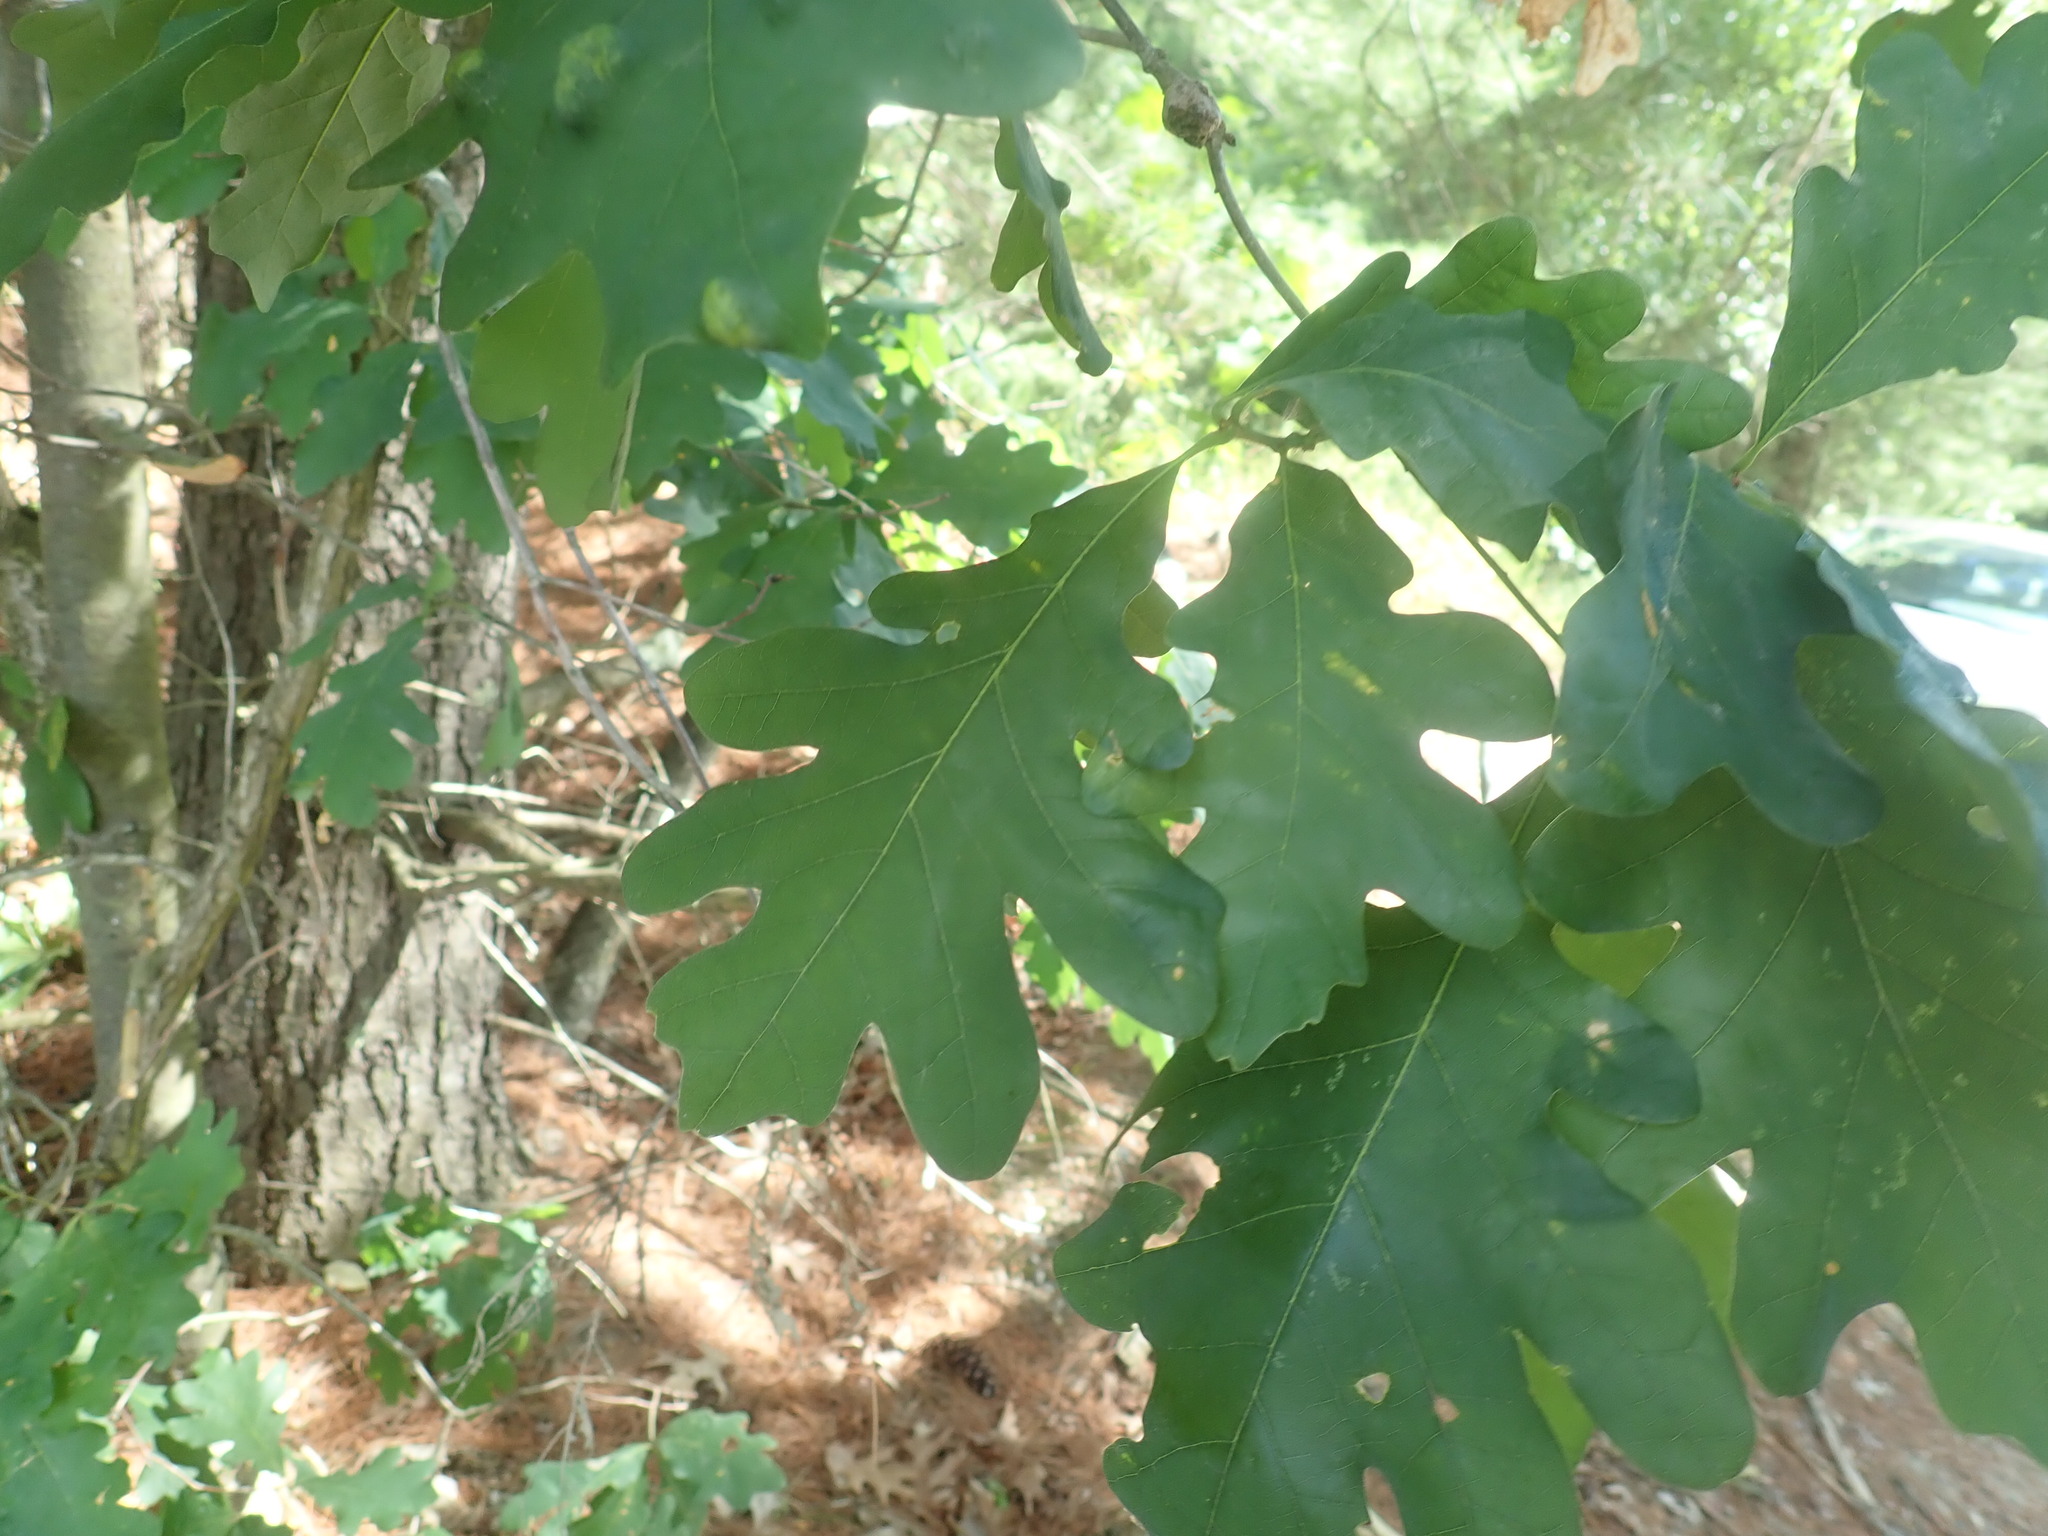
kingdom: Plantae
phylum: Tracheophyta
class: Magnoliopsida
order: Fagales
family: Fagaceae
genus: Quercus
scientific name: Quercus alba
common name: White oak
